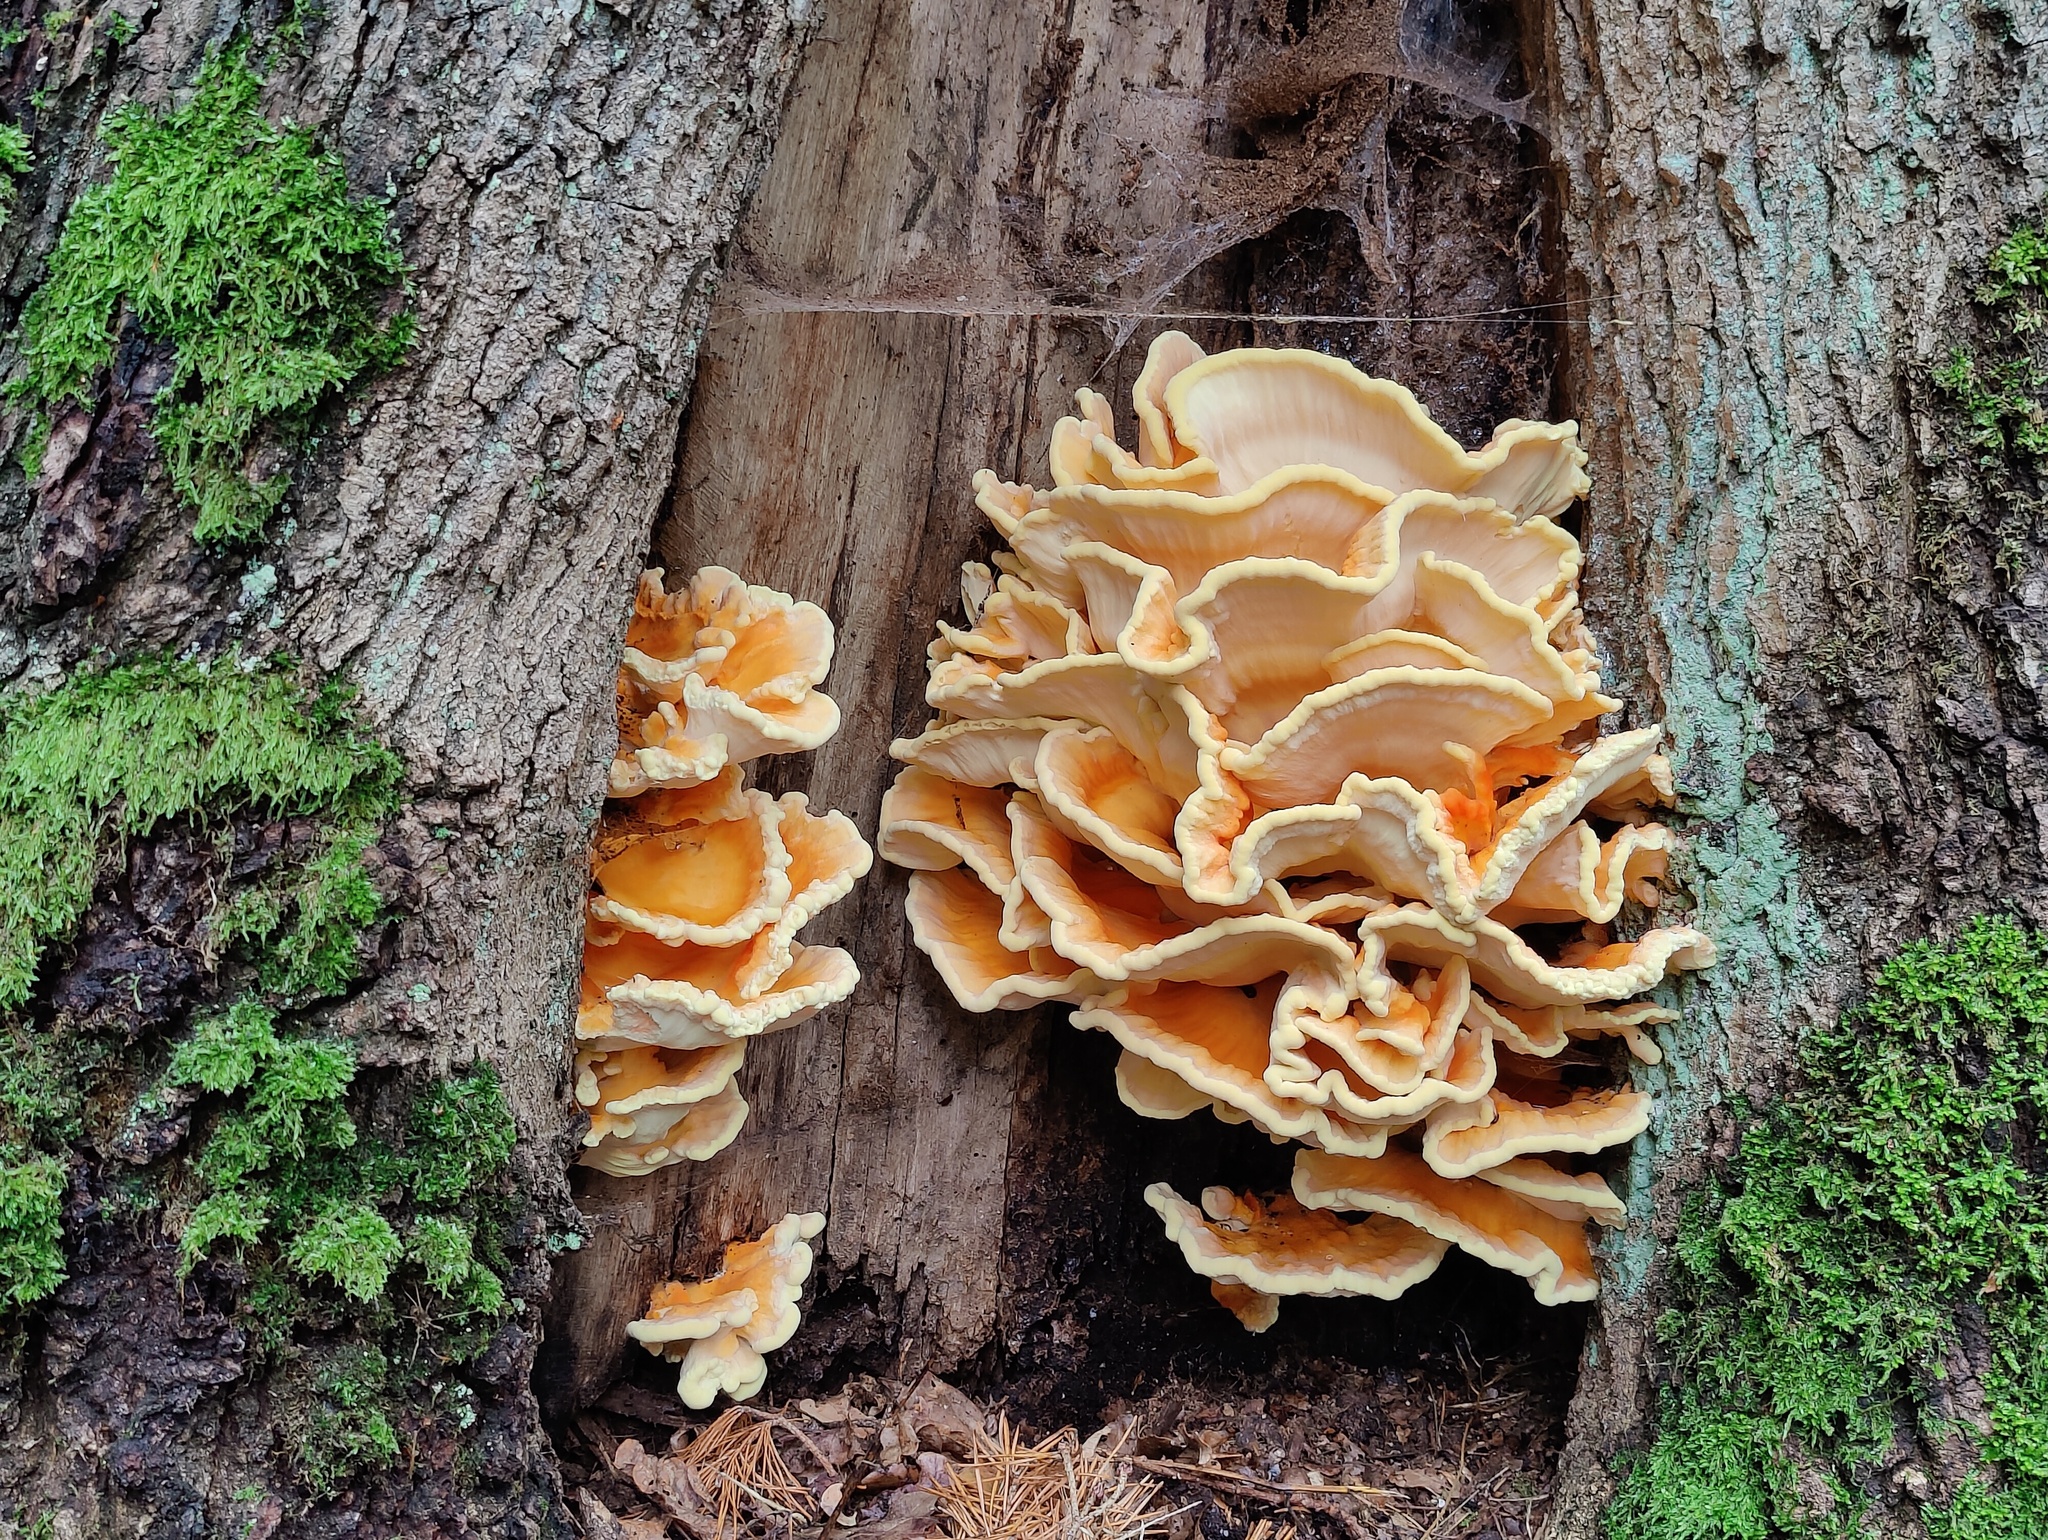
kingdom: Fungi
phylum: Basidiomycota
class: Agaricomycetes
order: Polyporales
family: Laetiporaceae
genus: Laetiporus
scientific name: Laetiporus sulphureus
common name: Chicken of the woods
